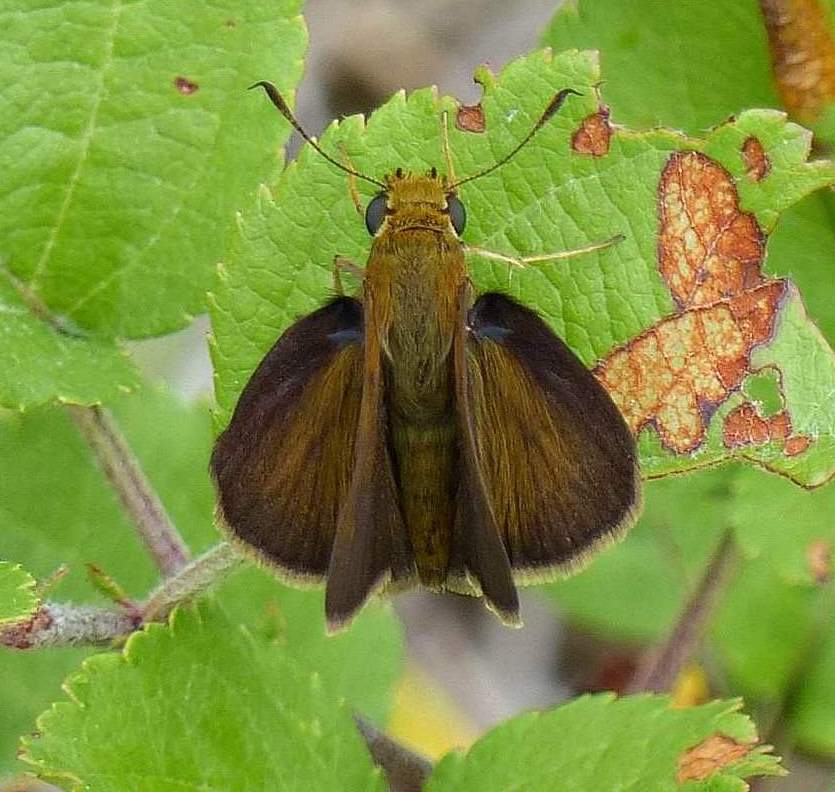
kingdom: Animalia
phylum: Arthropoda
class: Insecta
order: Lepidoptera
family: Hesperiidae
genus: Euphyes
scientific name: Euphyes vestris
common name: Dun skipper
